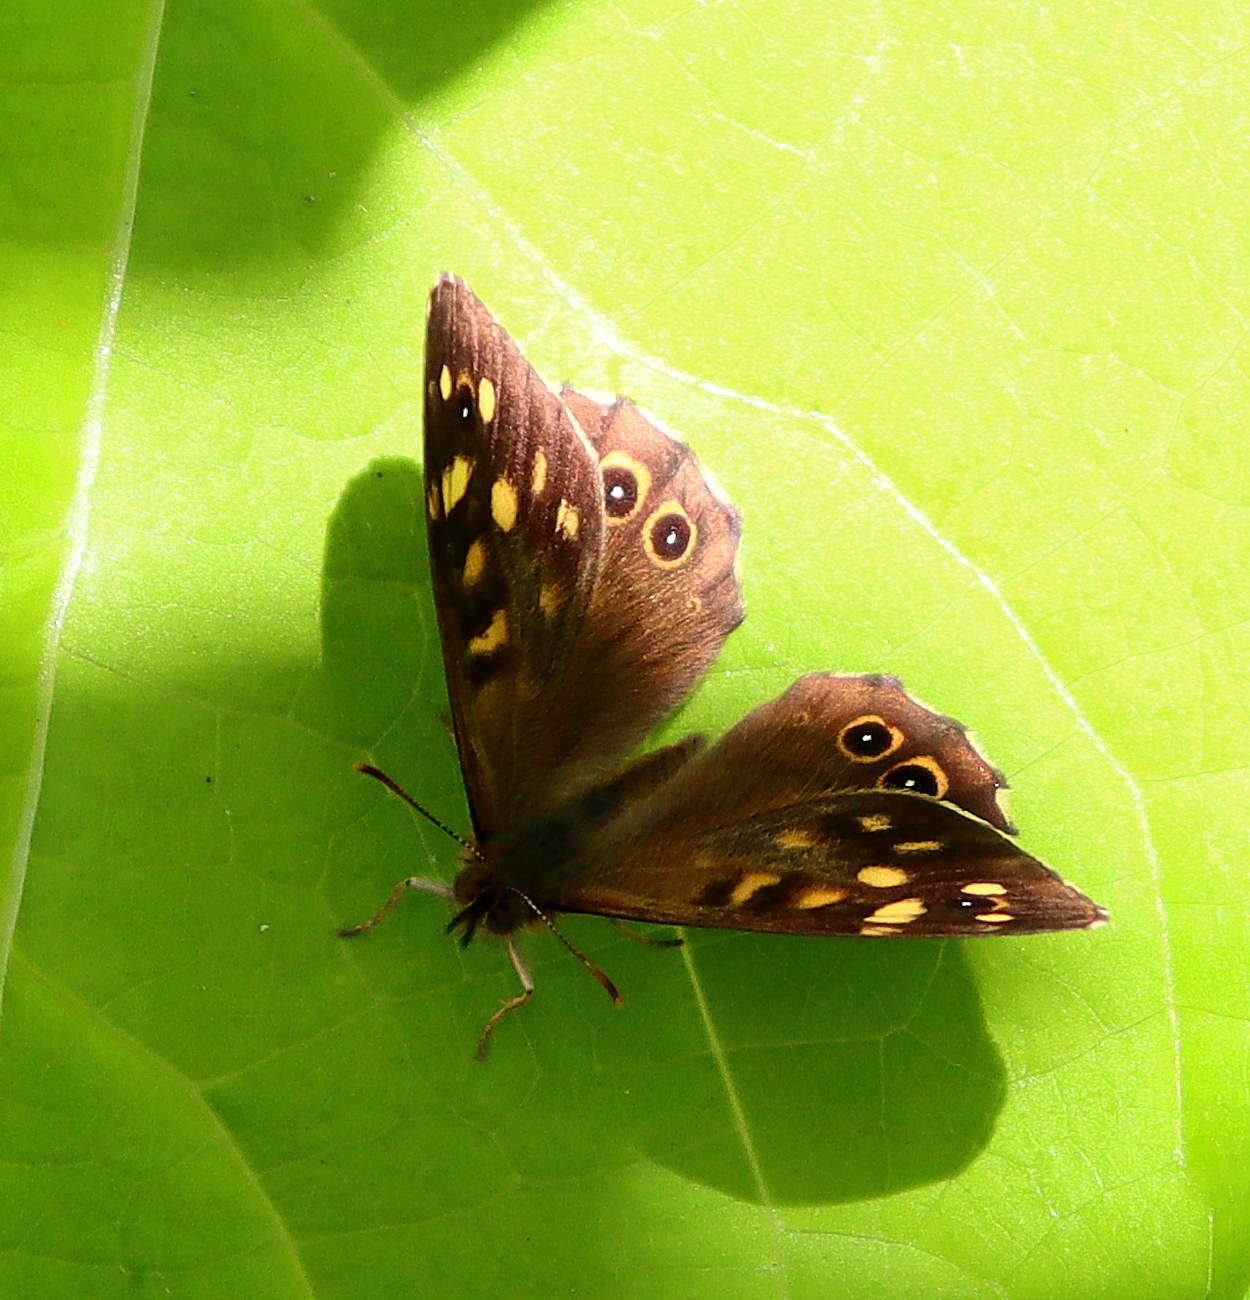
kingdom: Animalia
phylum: Arthropoda
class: Insecta
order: Lepidoptera
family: Nymphalidae
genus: Pararge
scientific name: Pararge aegeria
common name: Speckled wood
